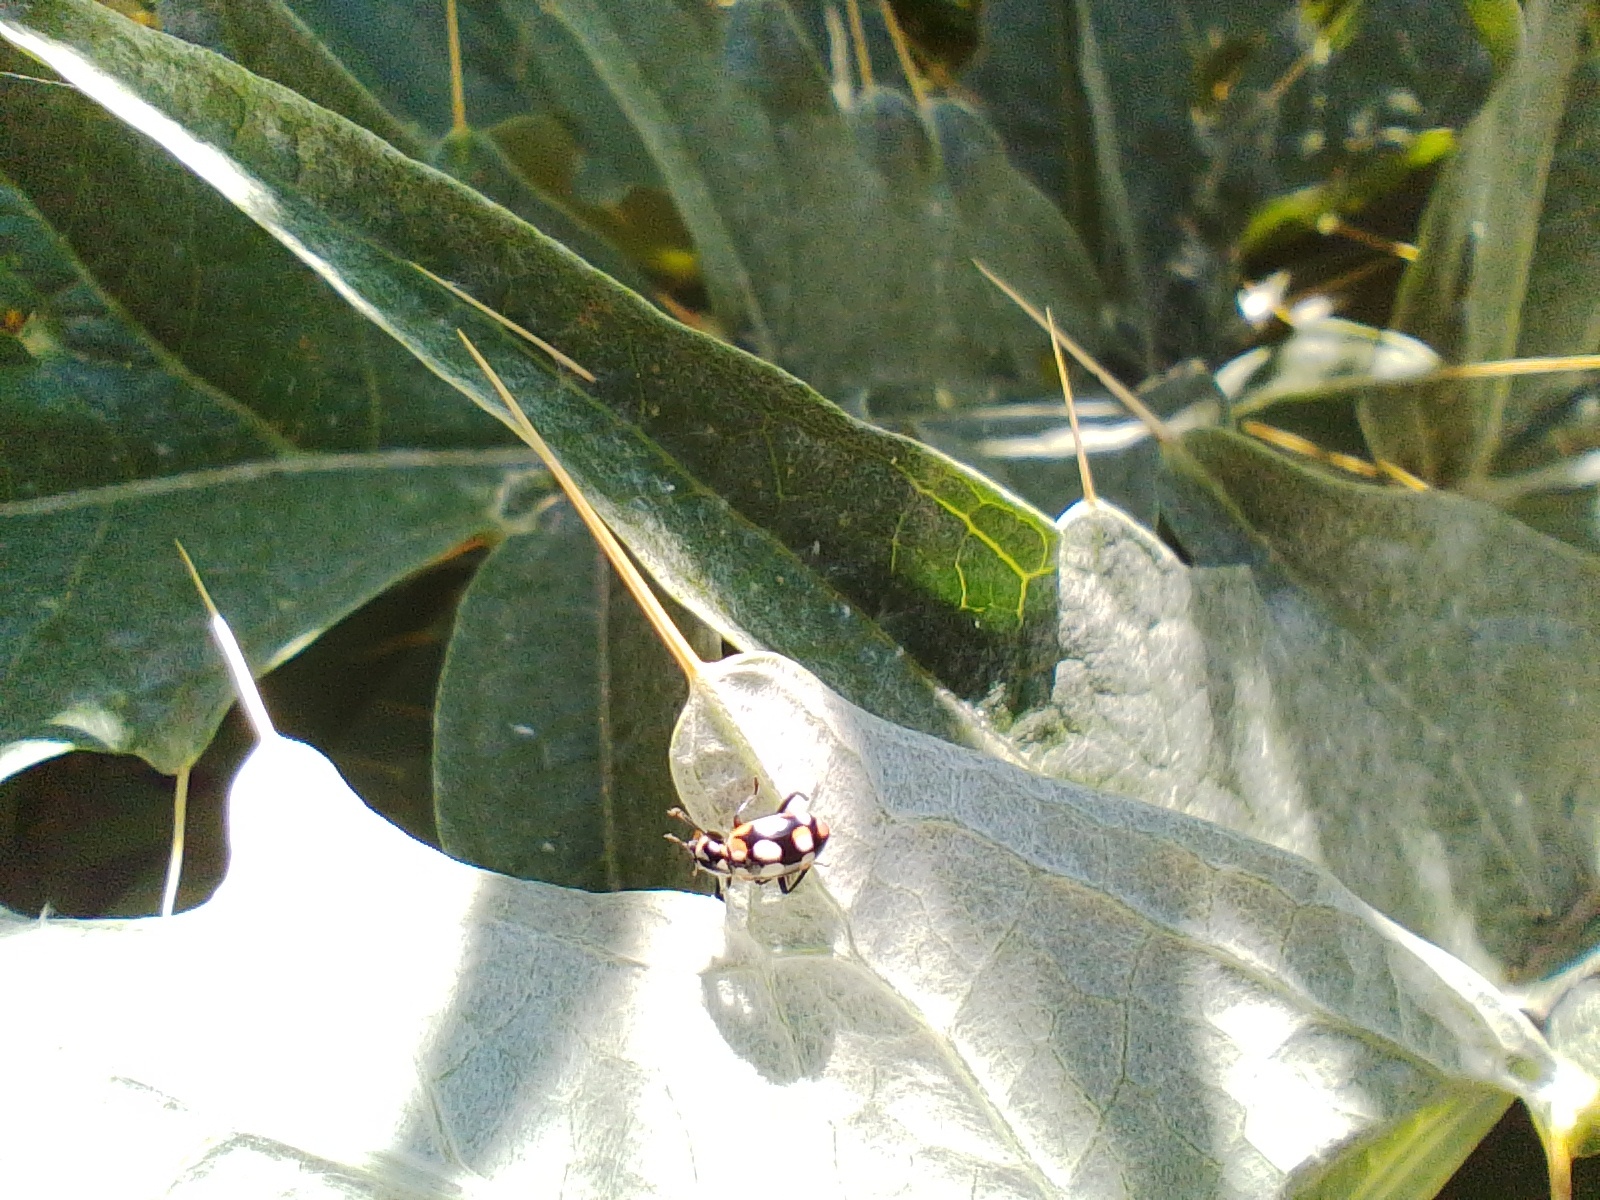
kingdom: Animalia
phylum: Arthropoda
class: Insecta
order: Coleoptera
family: Coccinellidae
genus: Eriopis
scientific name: Eriopis connexa
